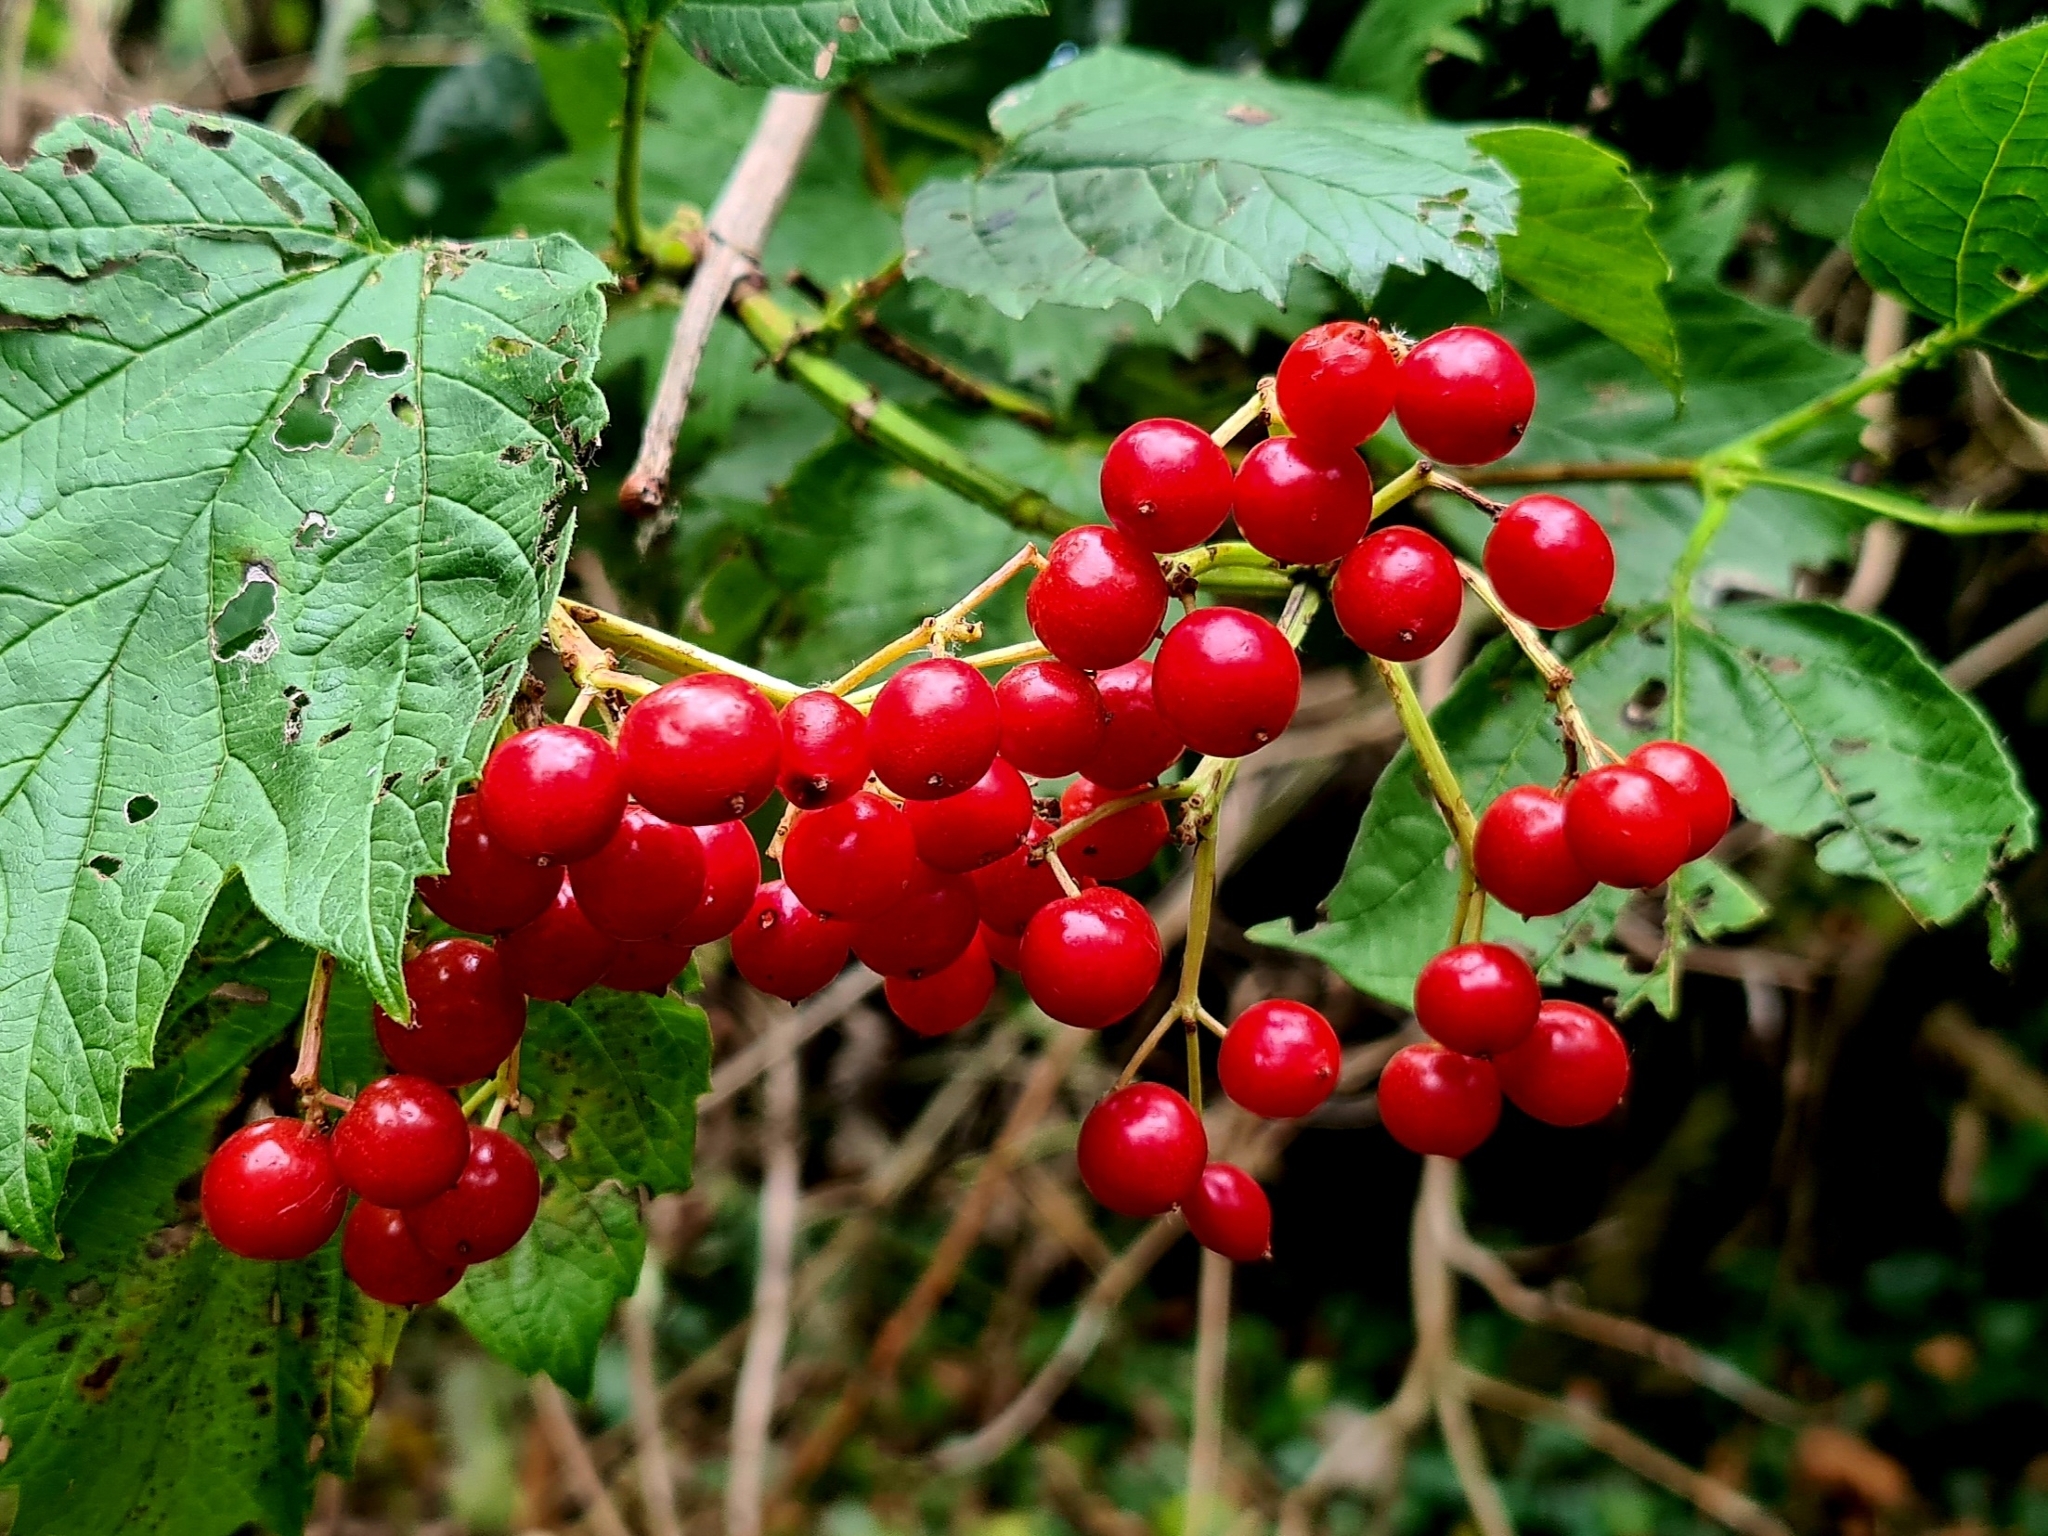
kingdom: Plantae
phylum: Tracheophyta
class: Magnoliopsida
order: Dipsacales
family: Viburnaceae
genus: Viburnum
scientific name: Viburnum opulus
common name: Guelder-rose
